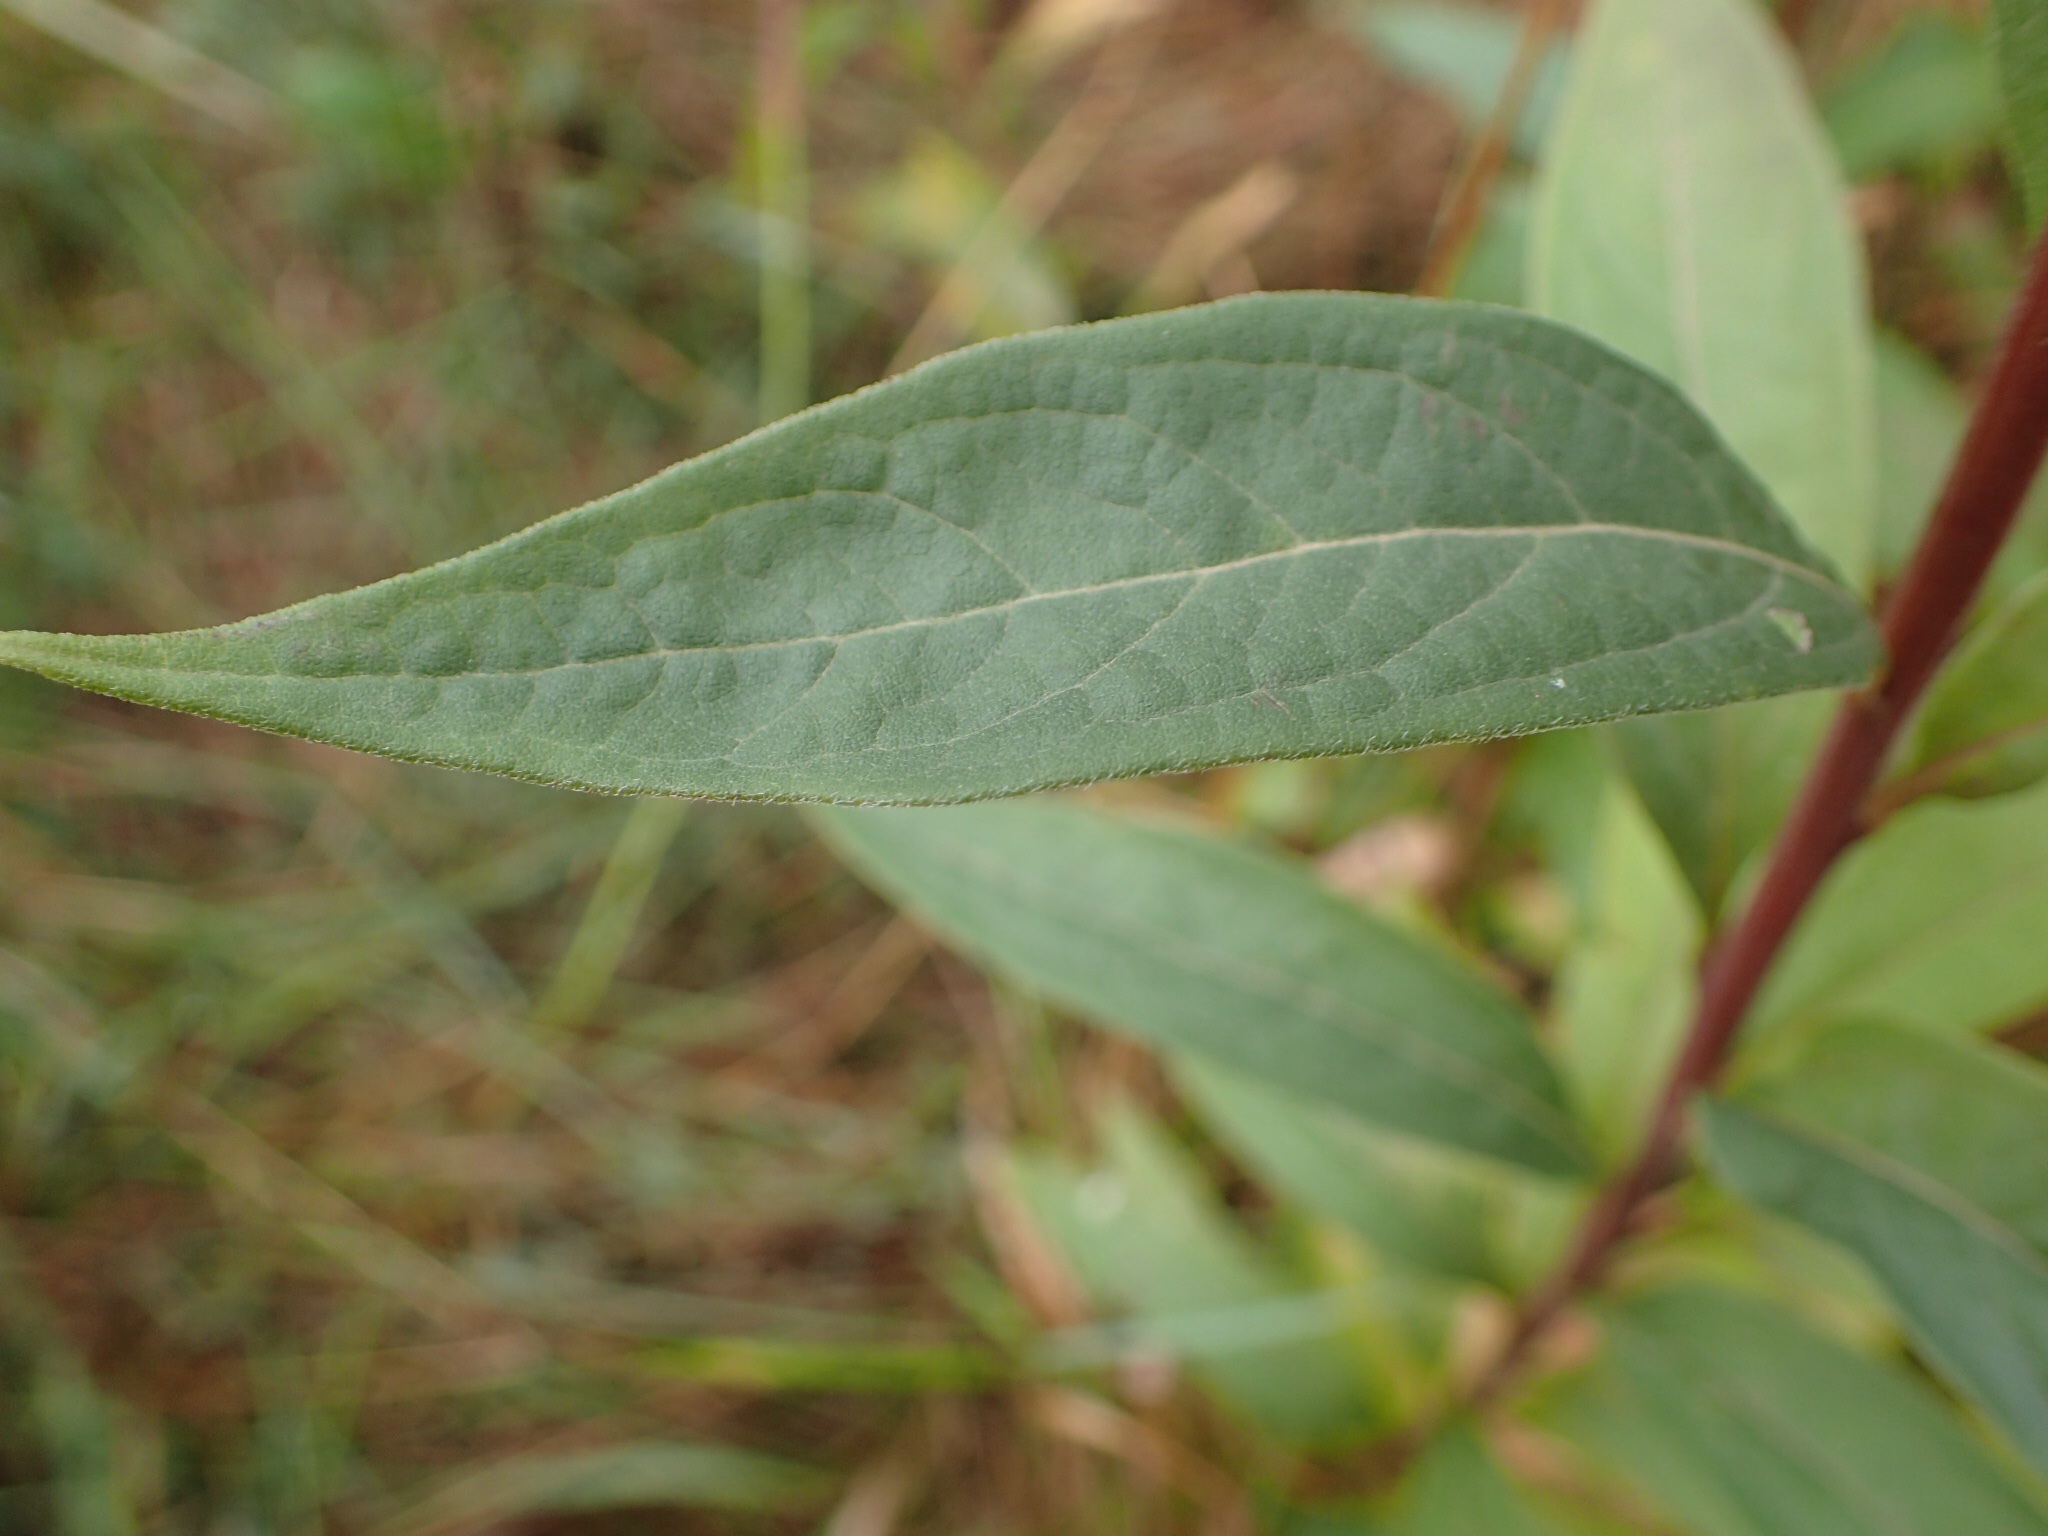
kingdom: Plantae
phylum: Tracheophyta
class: Magnoliopsida
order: Asterales
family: Asteraceae
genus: Doellingeria
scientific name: Doellingeria umbellata
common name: Flat-top white aster
